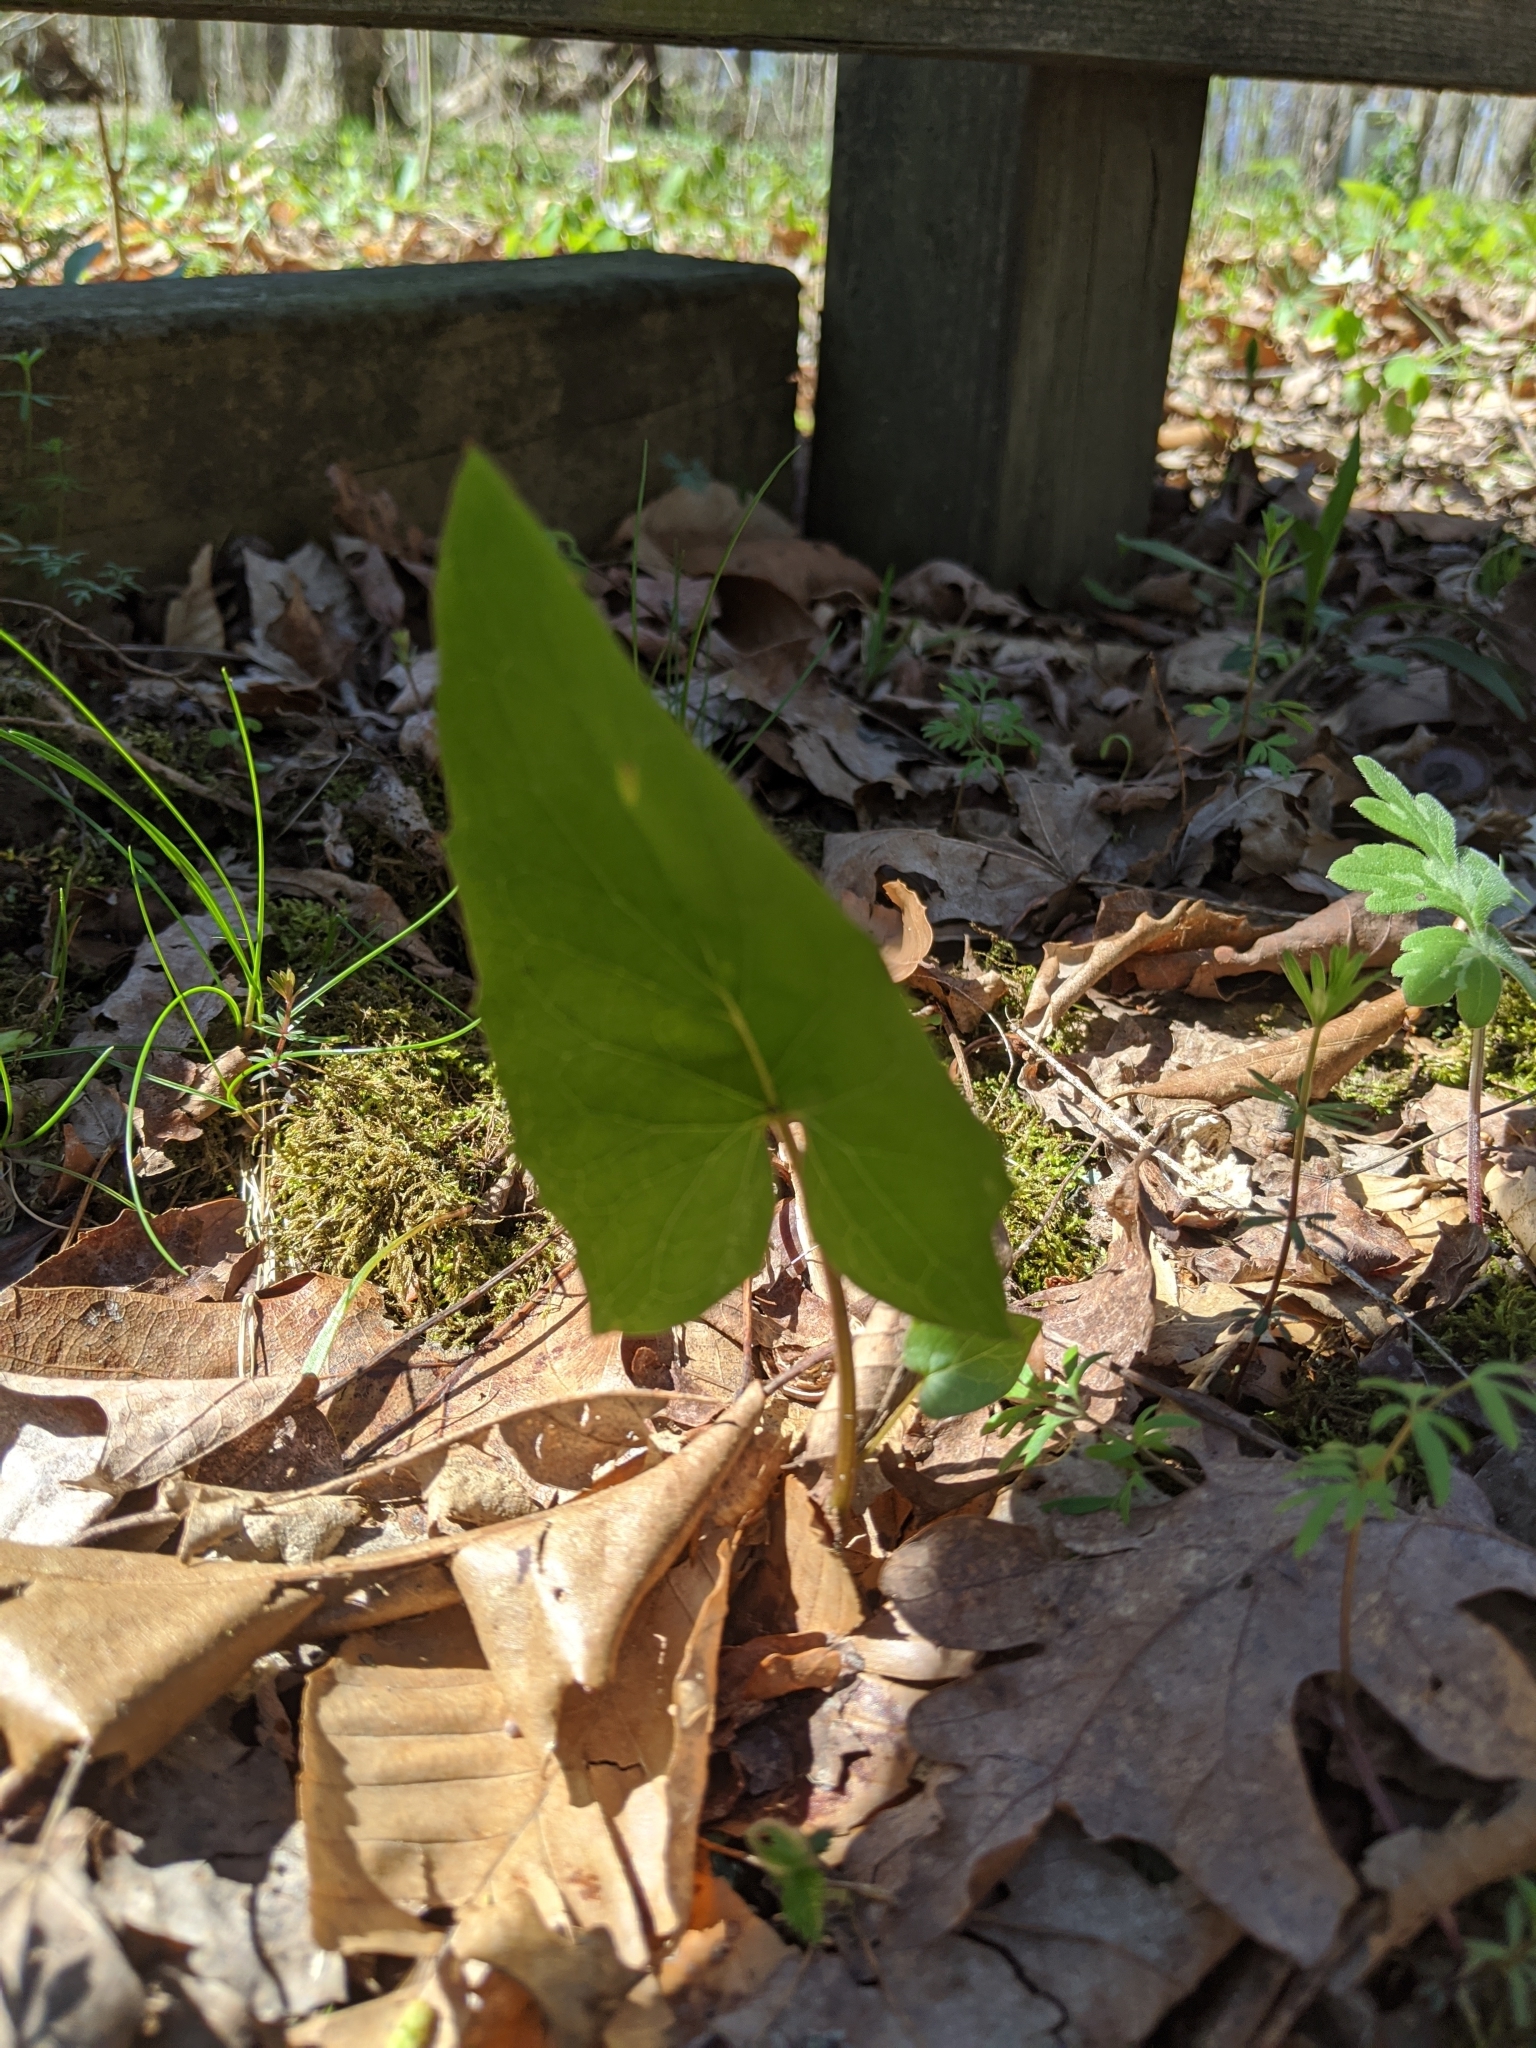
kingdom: Plantae
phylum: Tracheophyta
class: Magnoliopsida
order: Asterales
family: Asteraceae
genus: Nabalus
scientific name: Nabalus altissima
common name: Tall rattlesnakeroot
